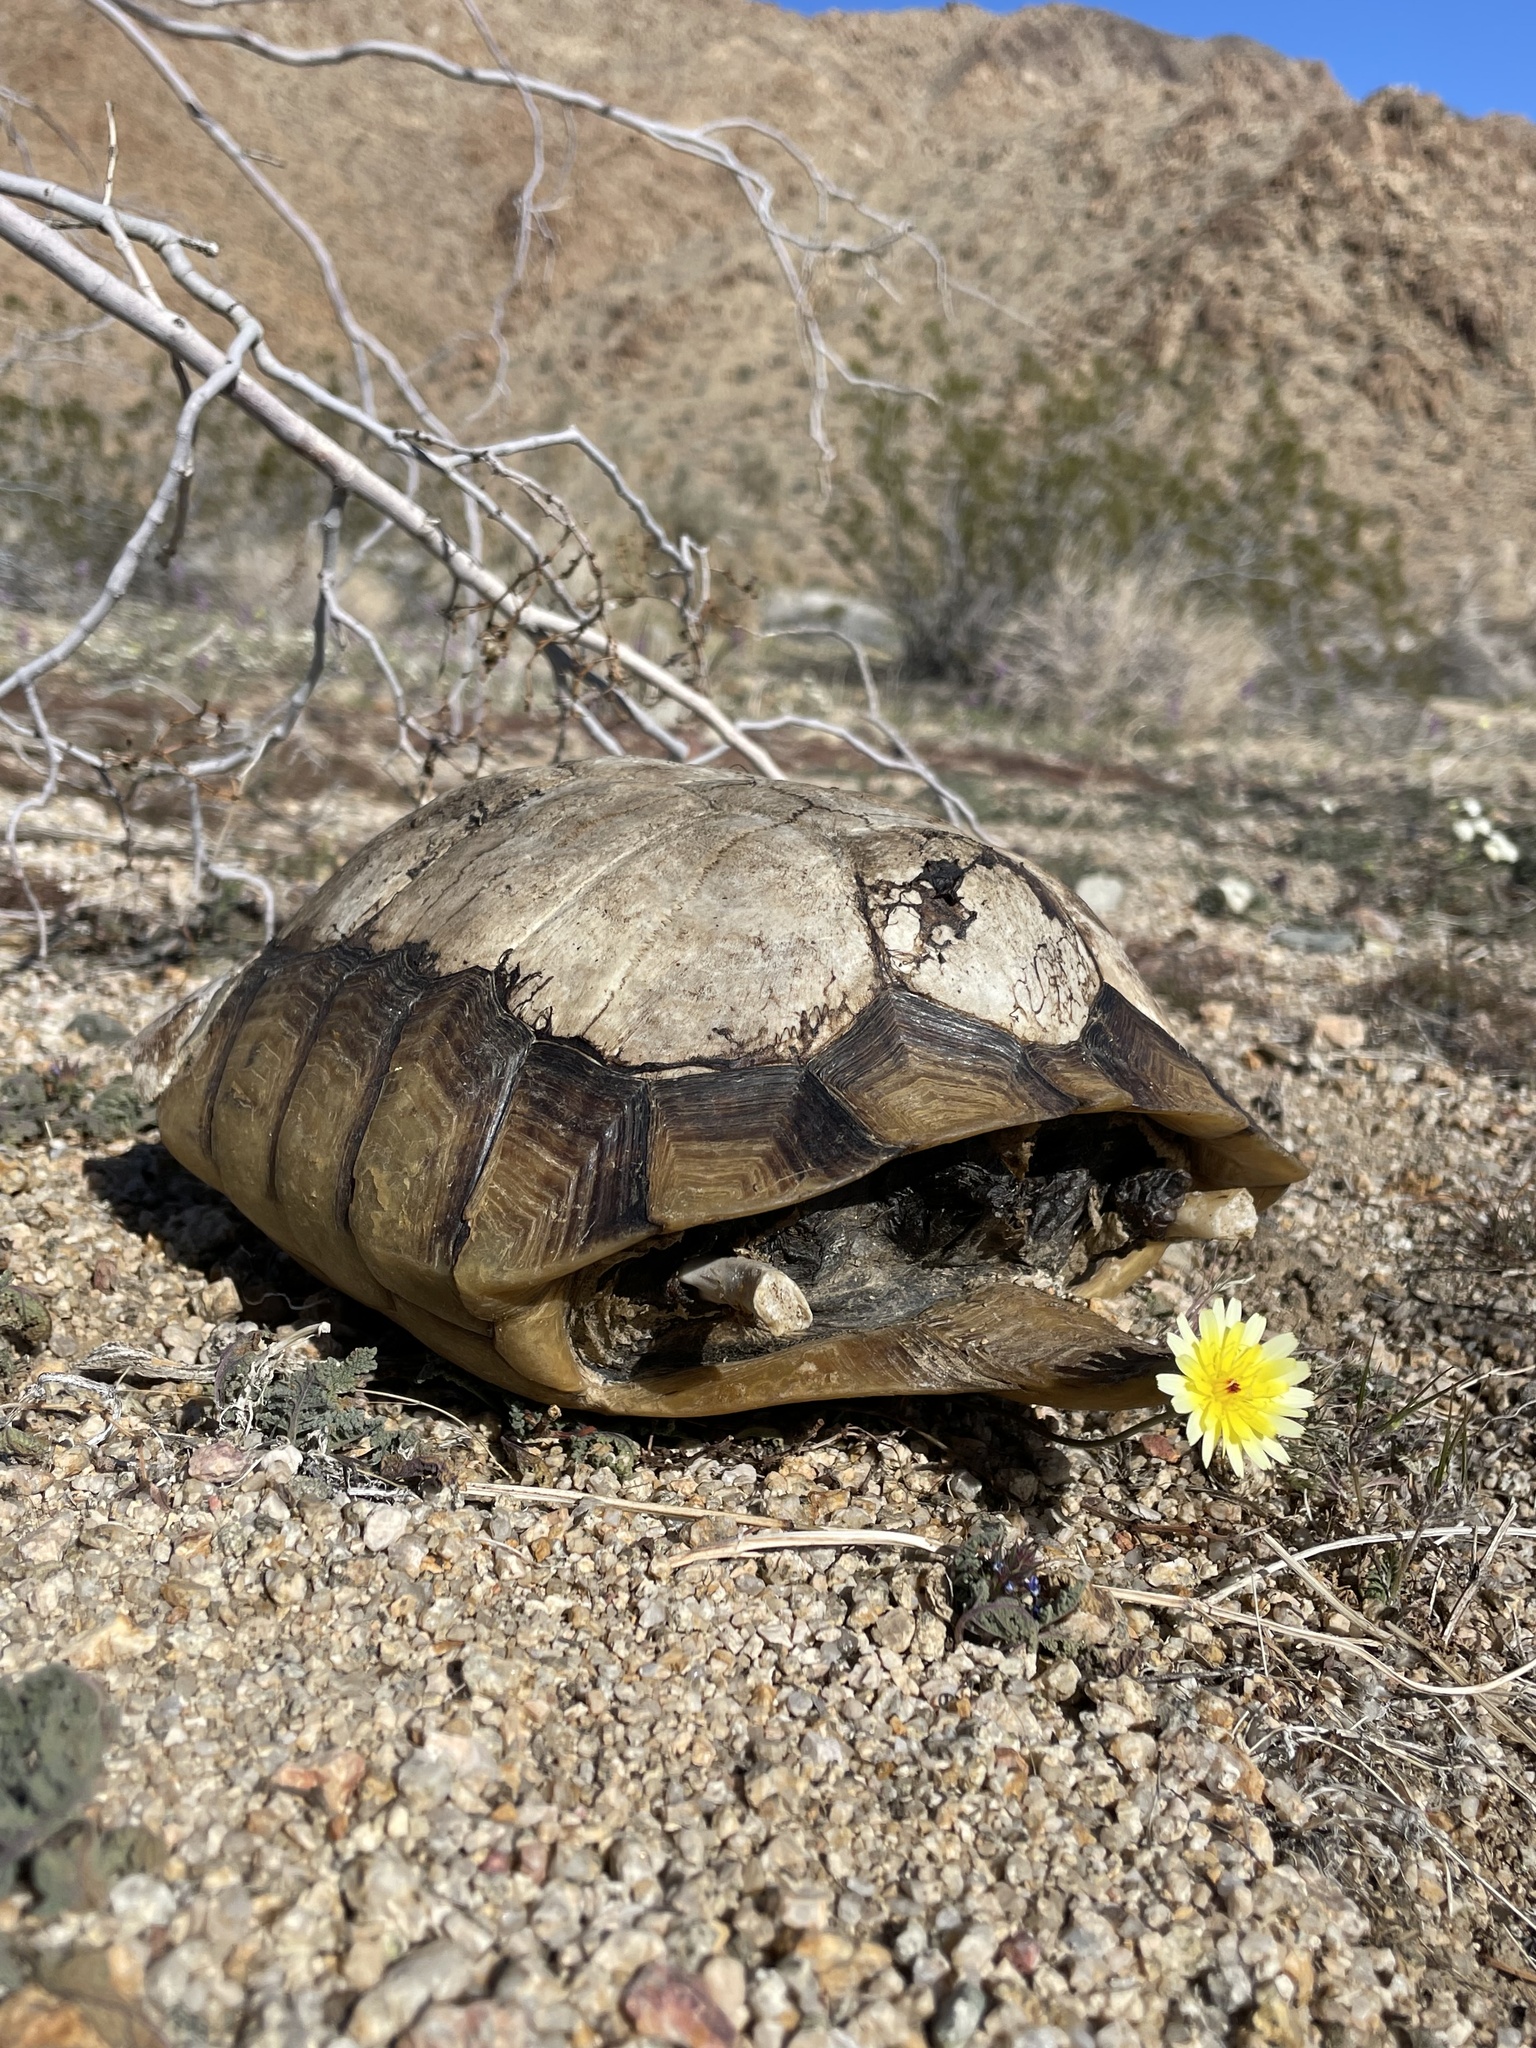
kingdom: Animalia
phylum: Chordata
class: Testudines
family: Testudinidae
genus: Gopherus
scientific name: Gopherus agassizii
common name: Mojave desert tortoise
